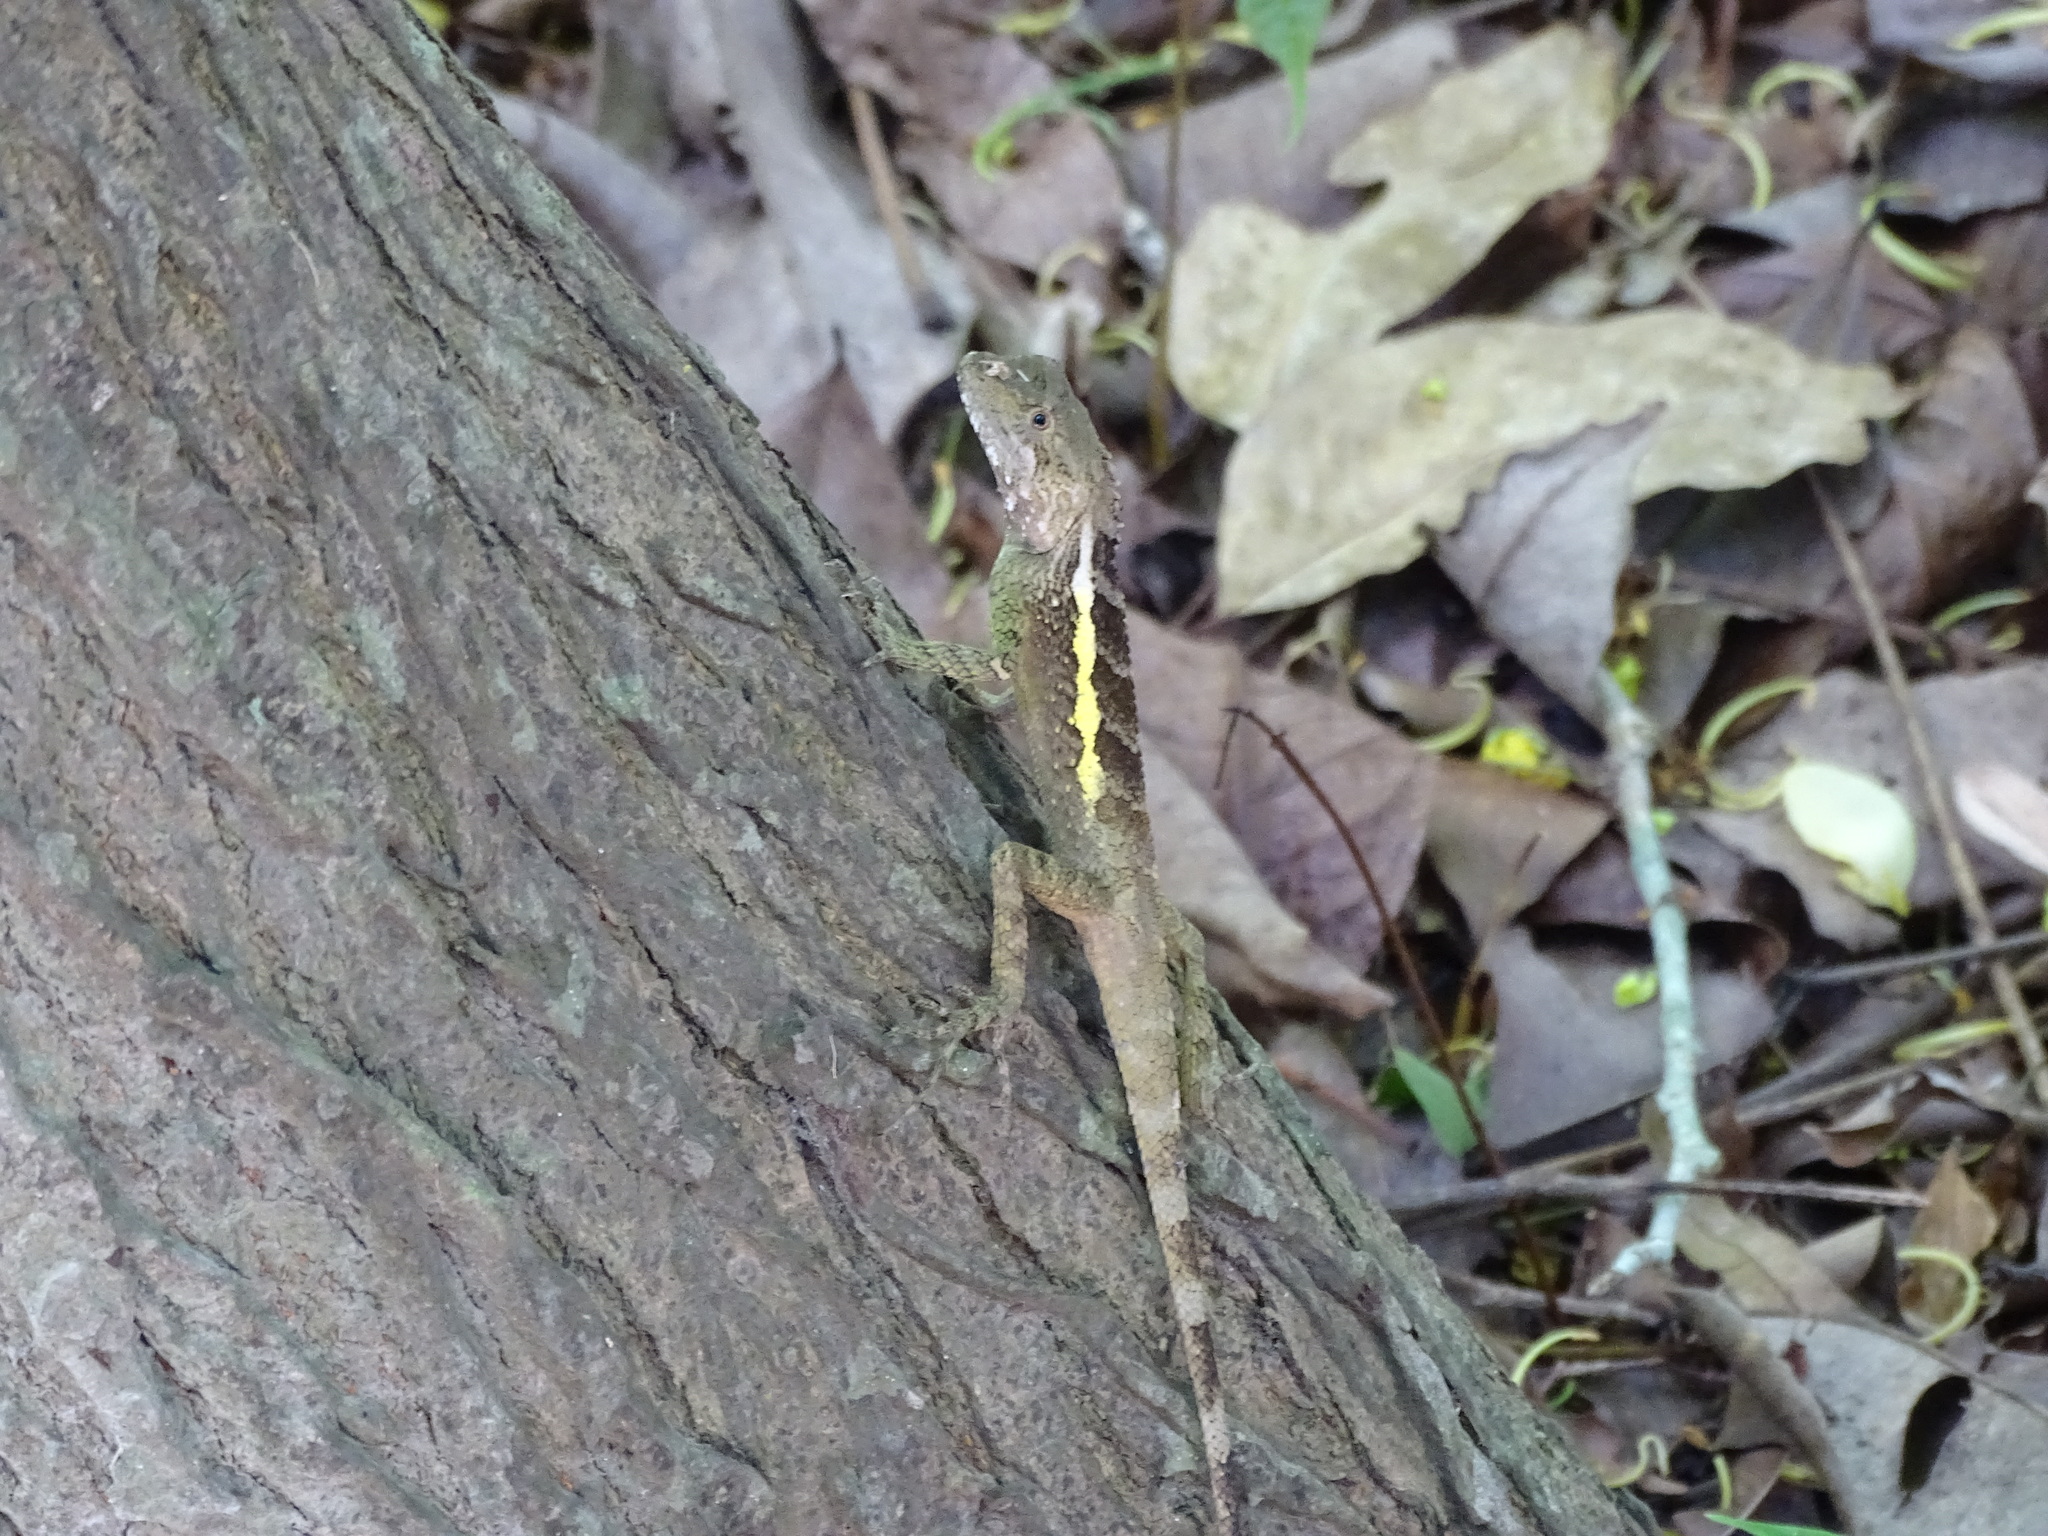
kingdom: Animalia
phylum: Chordata
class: Squamata
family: Agamidae
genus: Diploderma
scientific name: Diploderma swinhonis
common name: Taiwan japalure
